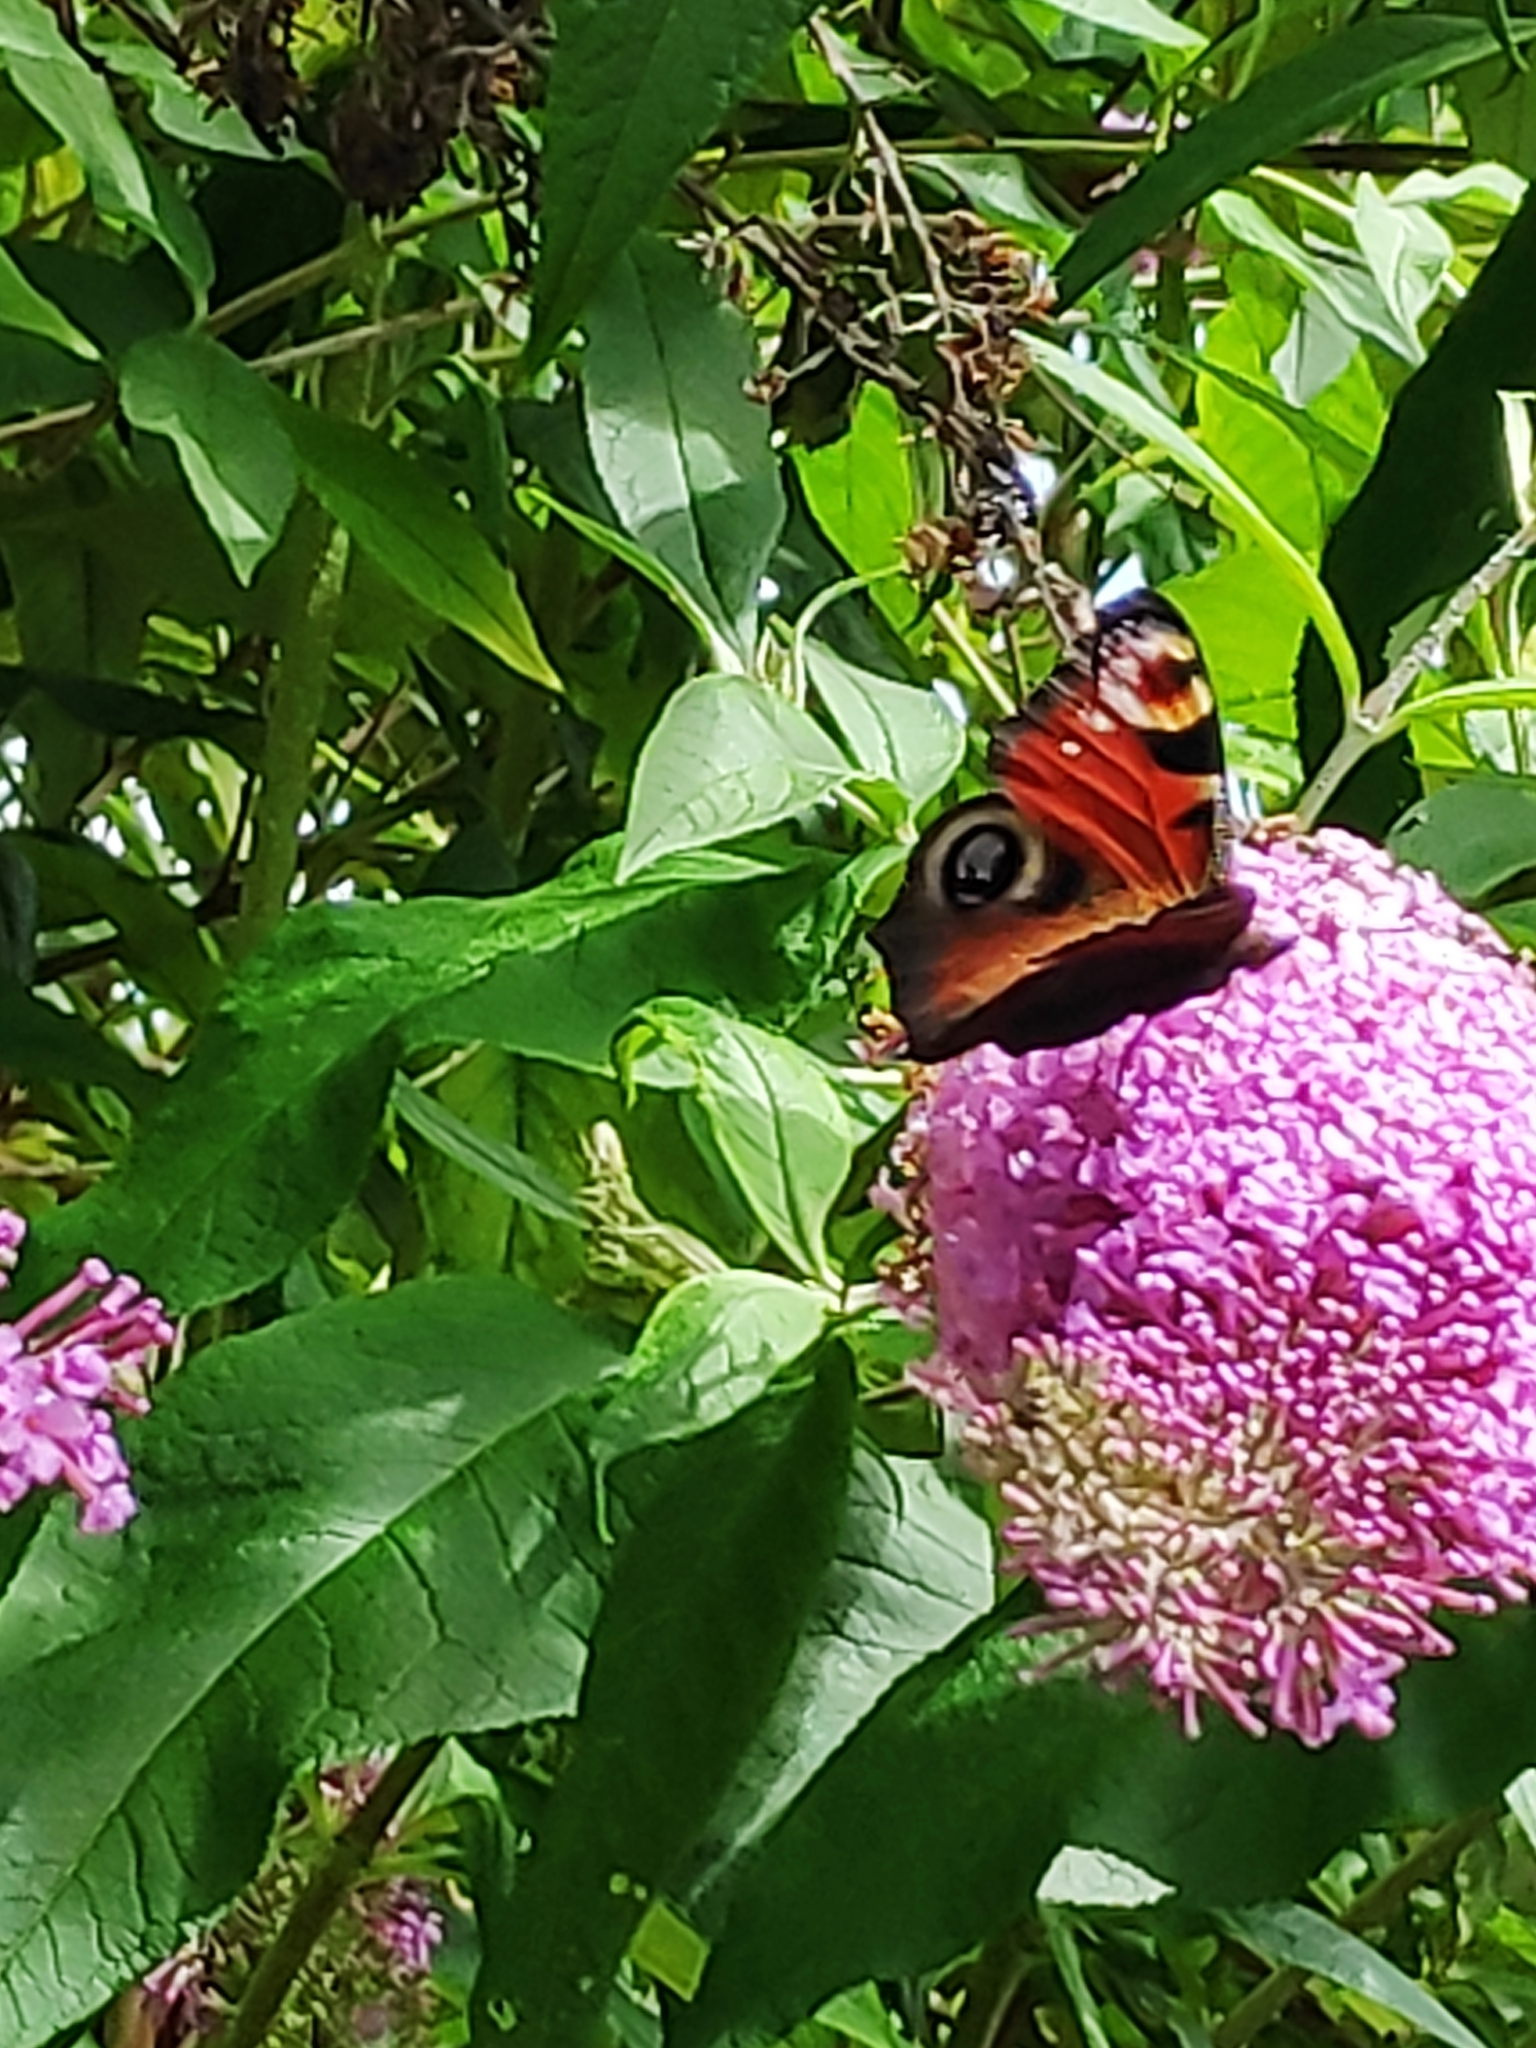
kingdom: Animalia
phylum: Arthropoda
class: Insecta
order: Lepidoptera
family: Nymphalidae
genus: Aglais
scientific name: Aglais io
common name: Peacock
